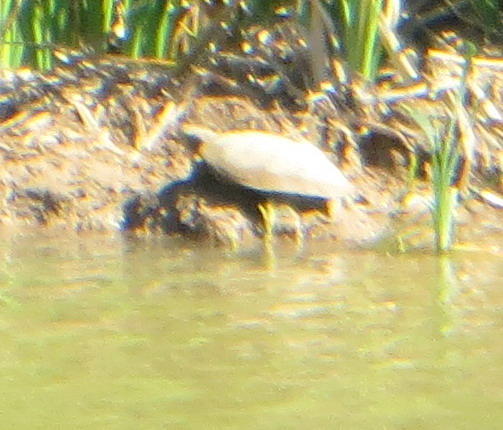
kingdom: Animalia
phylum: Chordata
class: Testudines
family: Pelomedusidae
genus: Pelomedusa
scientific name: Pelomedusa galeata
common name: South african helmeted terrapin
